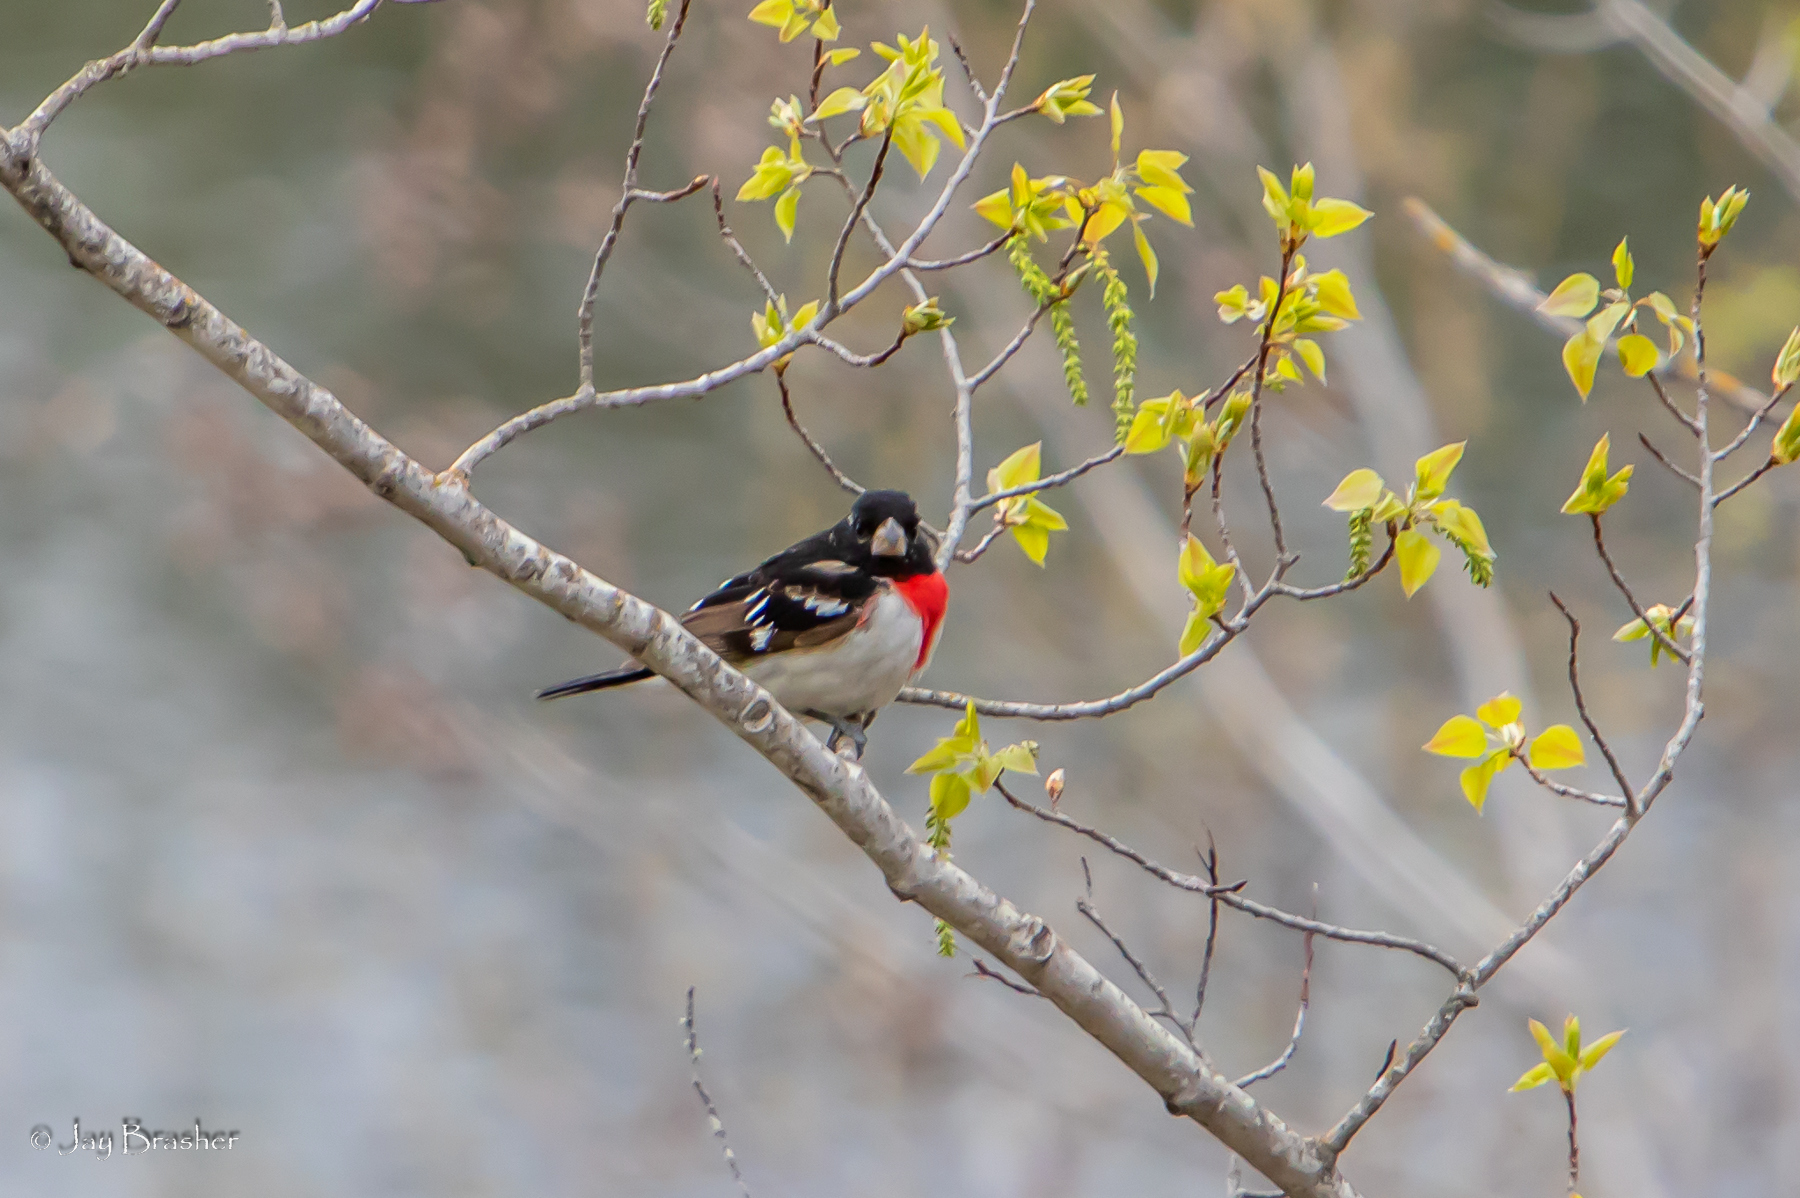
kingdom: Animalia
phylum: Chordata
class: Aves
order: Passeriformes
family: Cardinalidae
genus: Pheucticus
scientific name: Pheucticus ludovicianus
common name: Rose-breasted grosbeak
